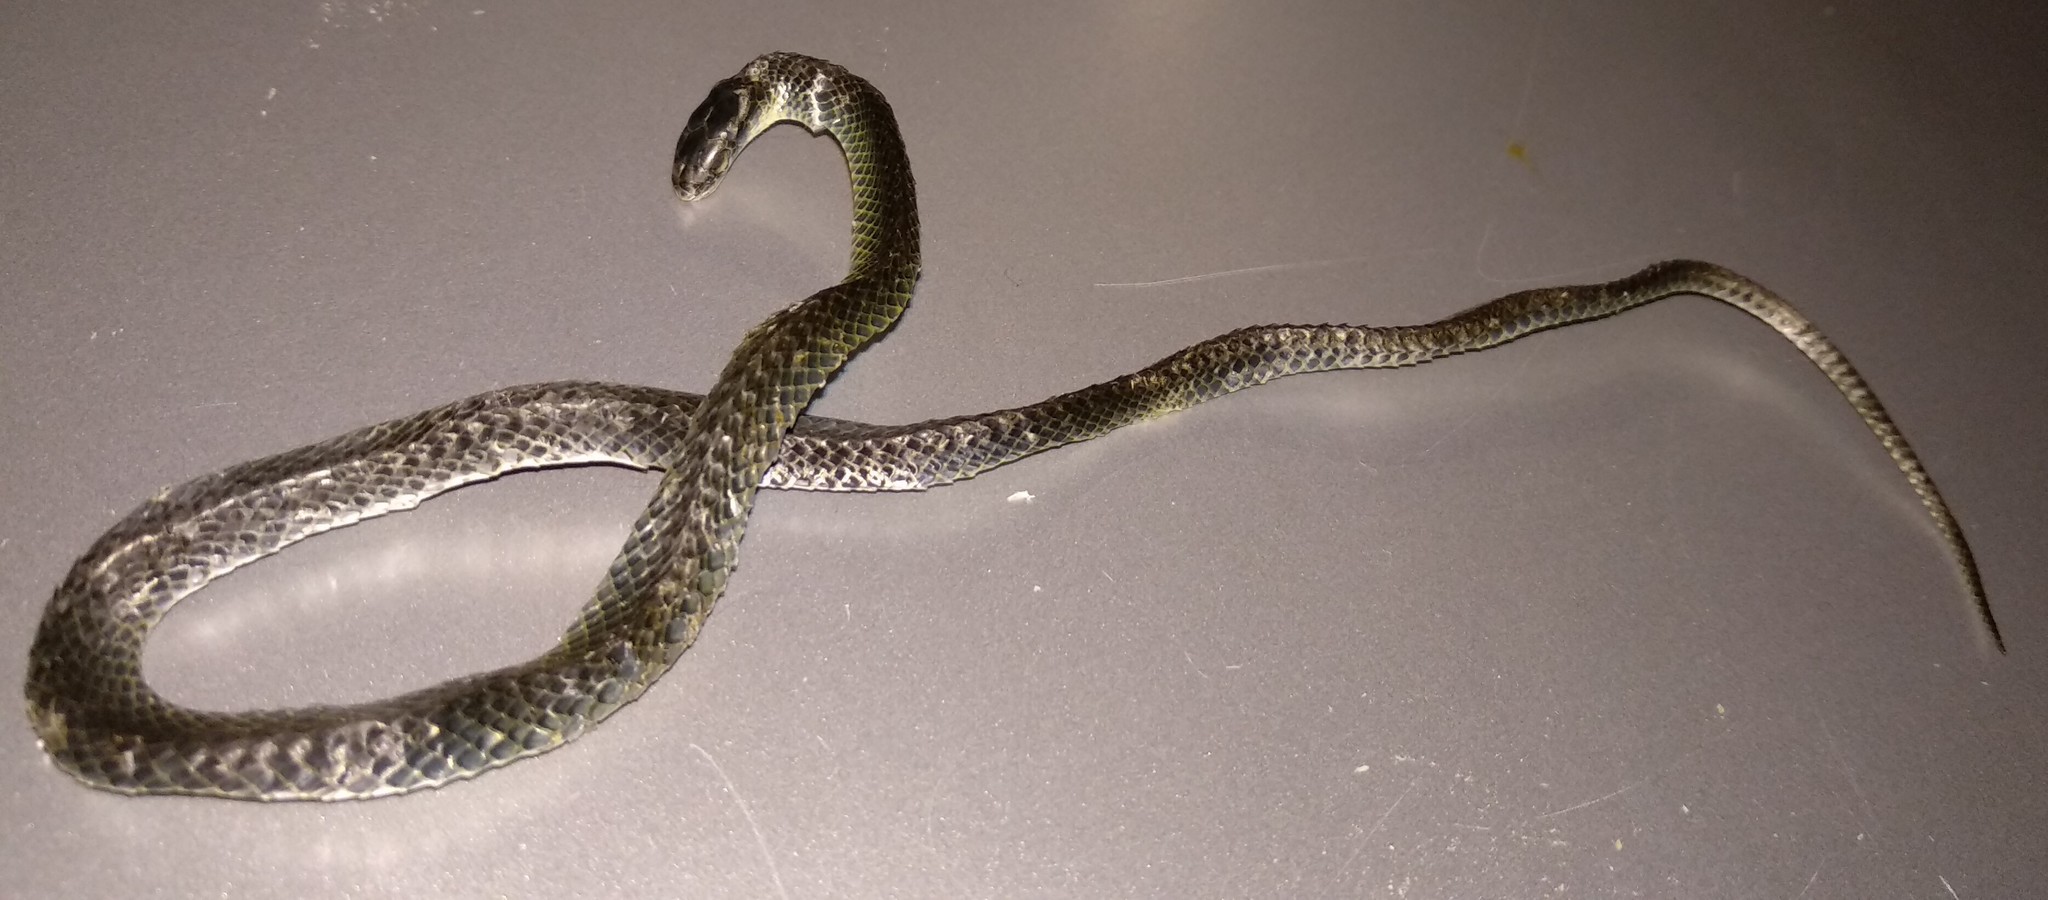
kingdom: Animalia
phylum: Chordata
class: Squamata
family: Colubridae
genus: Opheodrys
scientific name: Opheodrys vernalis
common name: Smooth green snake
